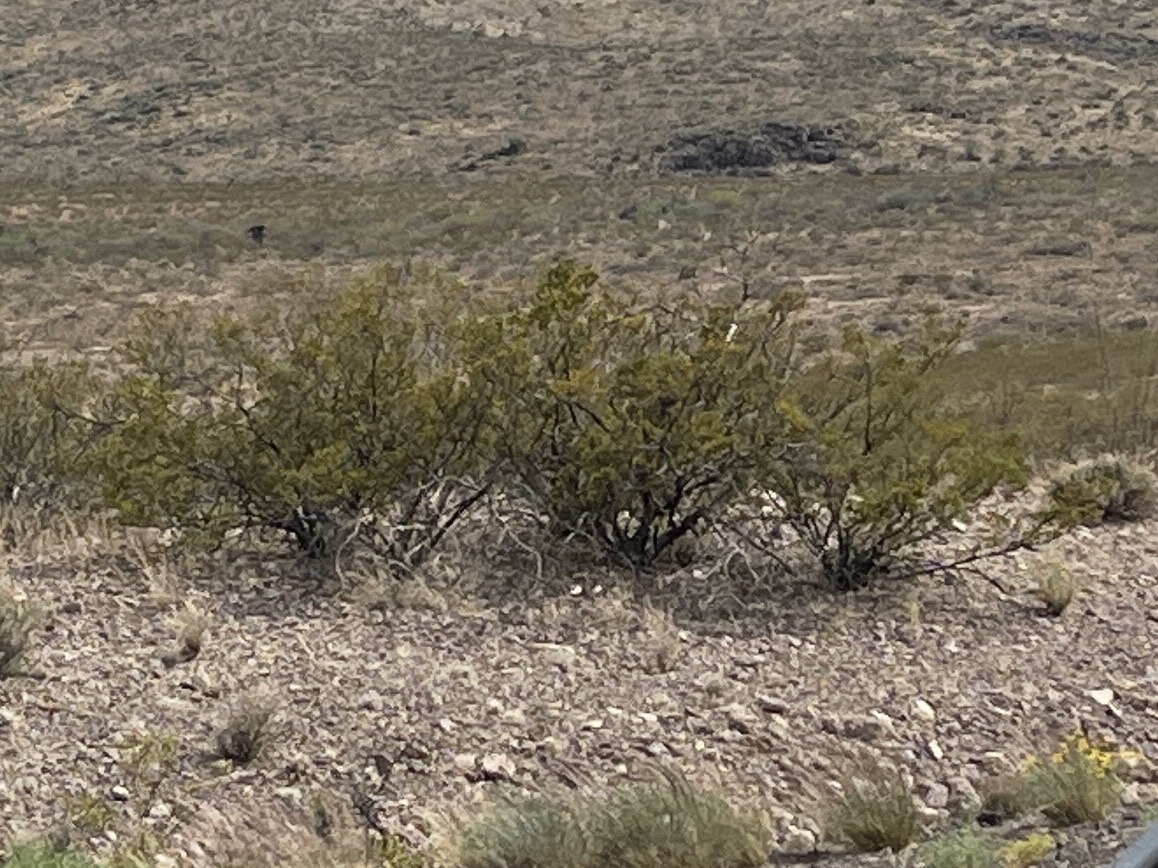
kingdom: Plantae
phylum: Tracheophyta
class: Magnoliopsida
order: Zygophyllales
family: Zygophyllaceae
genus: Larrea
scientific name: Larrea tridentata
